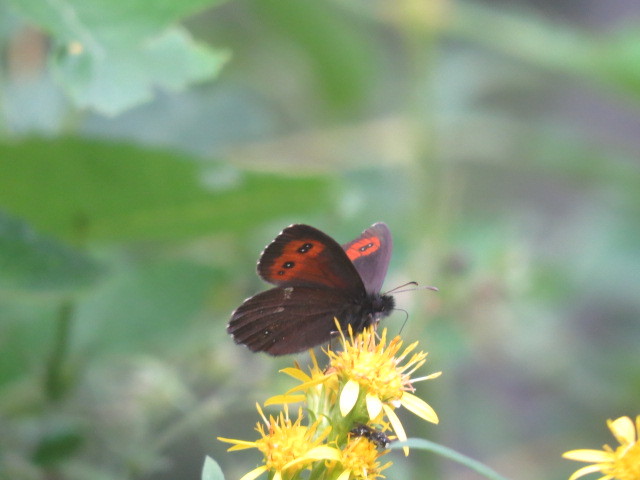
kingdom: Animalia
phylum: Arthropoda
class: Insecta
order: Lepidoptera
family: Nymphalidae
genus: Erebia
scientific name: Erebia euryale
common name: Large ringlet
